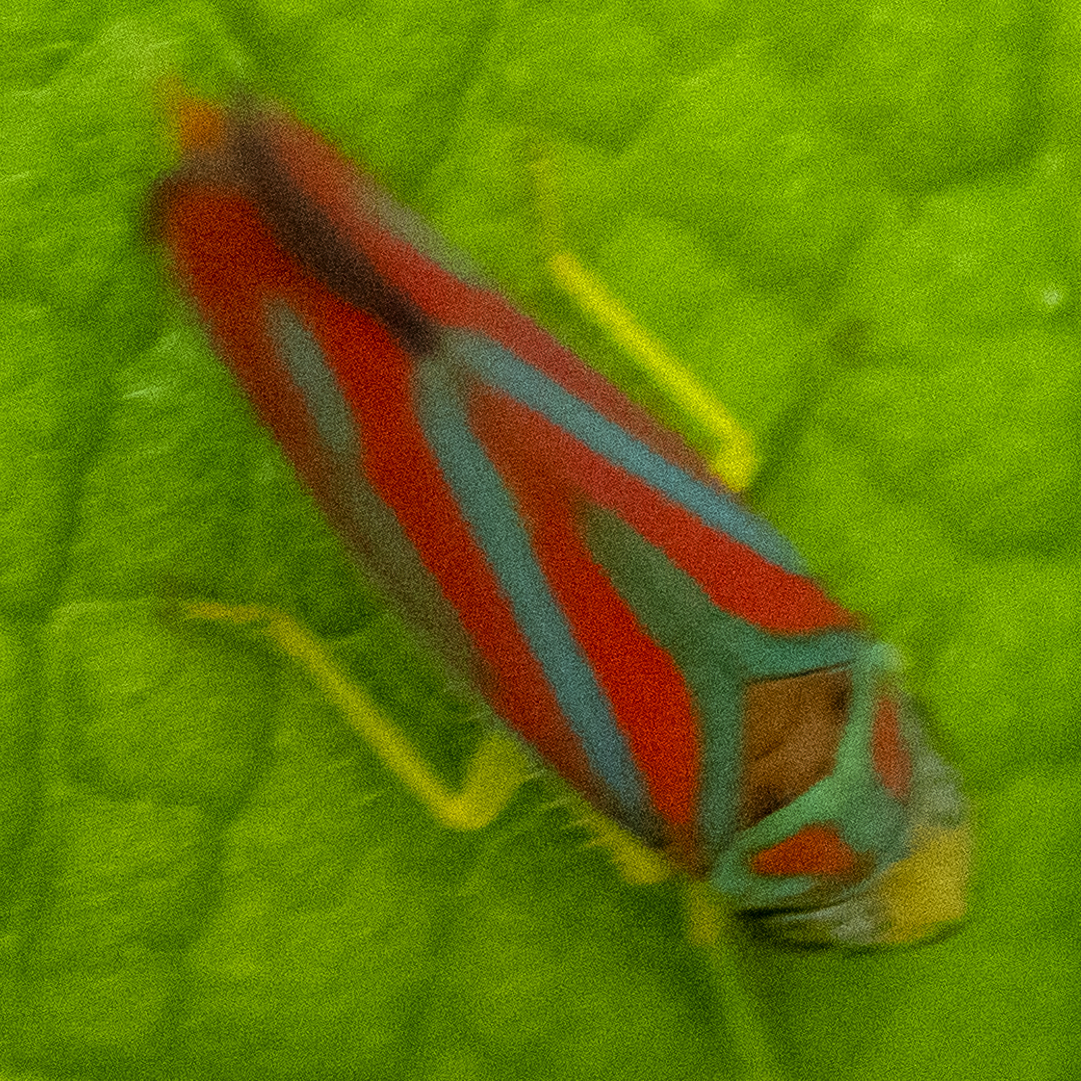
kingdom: Animalia
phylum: Arthropoda
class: Insecta
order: Hemiptera
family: Cicadellidae
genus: Graphocephala
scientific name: Graphocephala coccinea
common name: Candy-striped leafhopper
